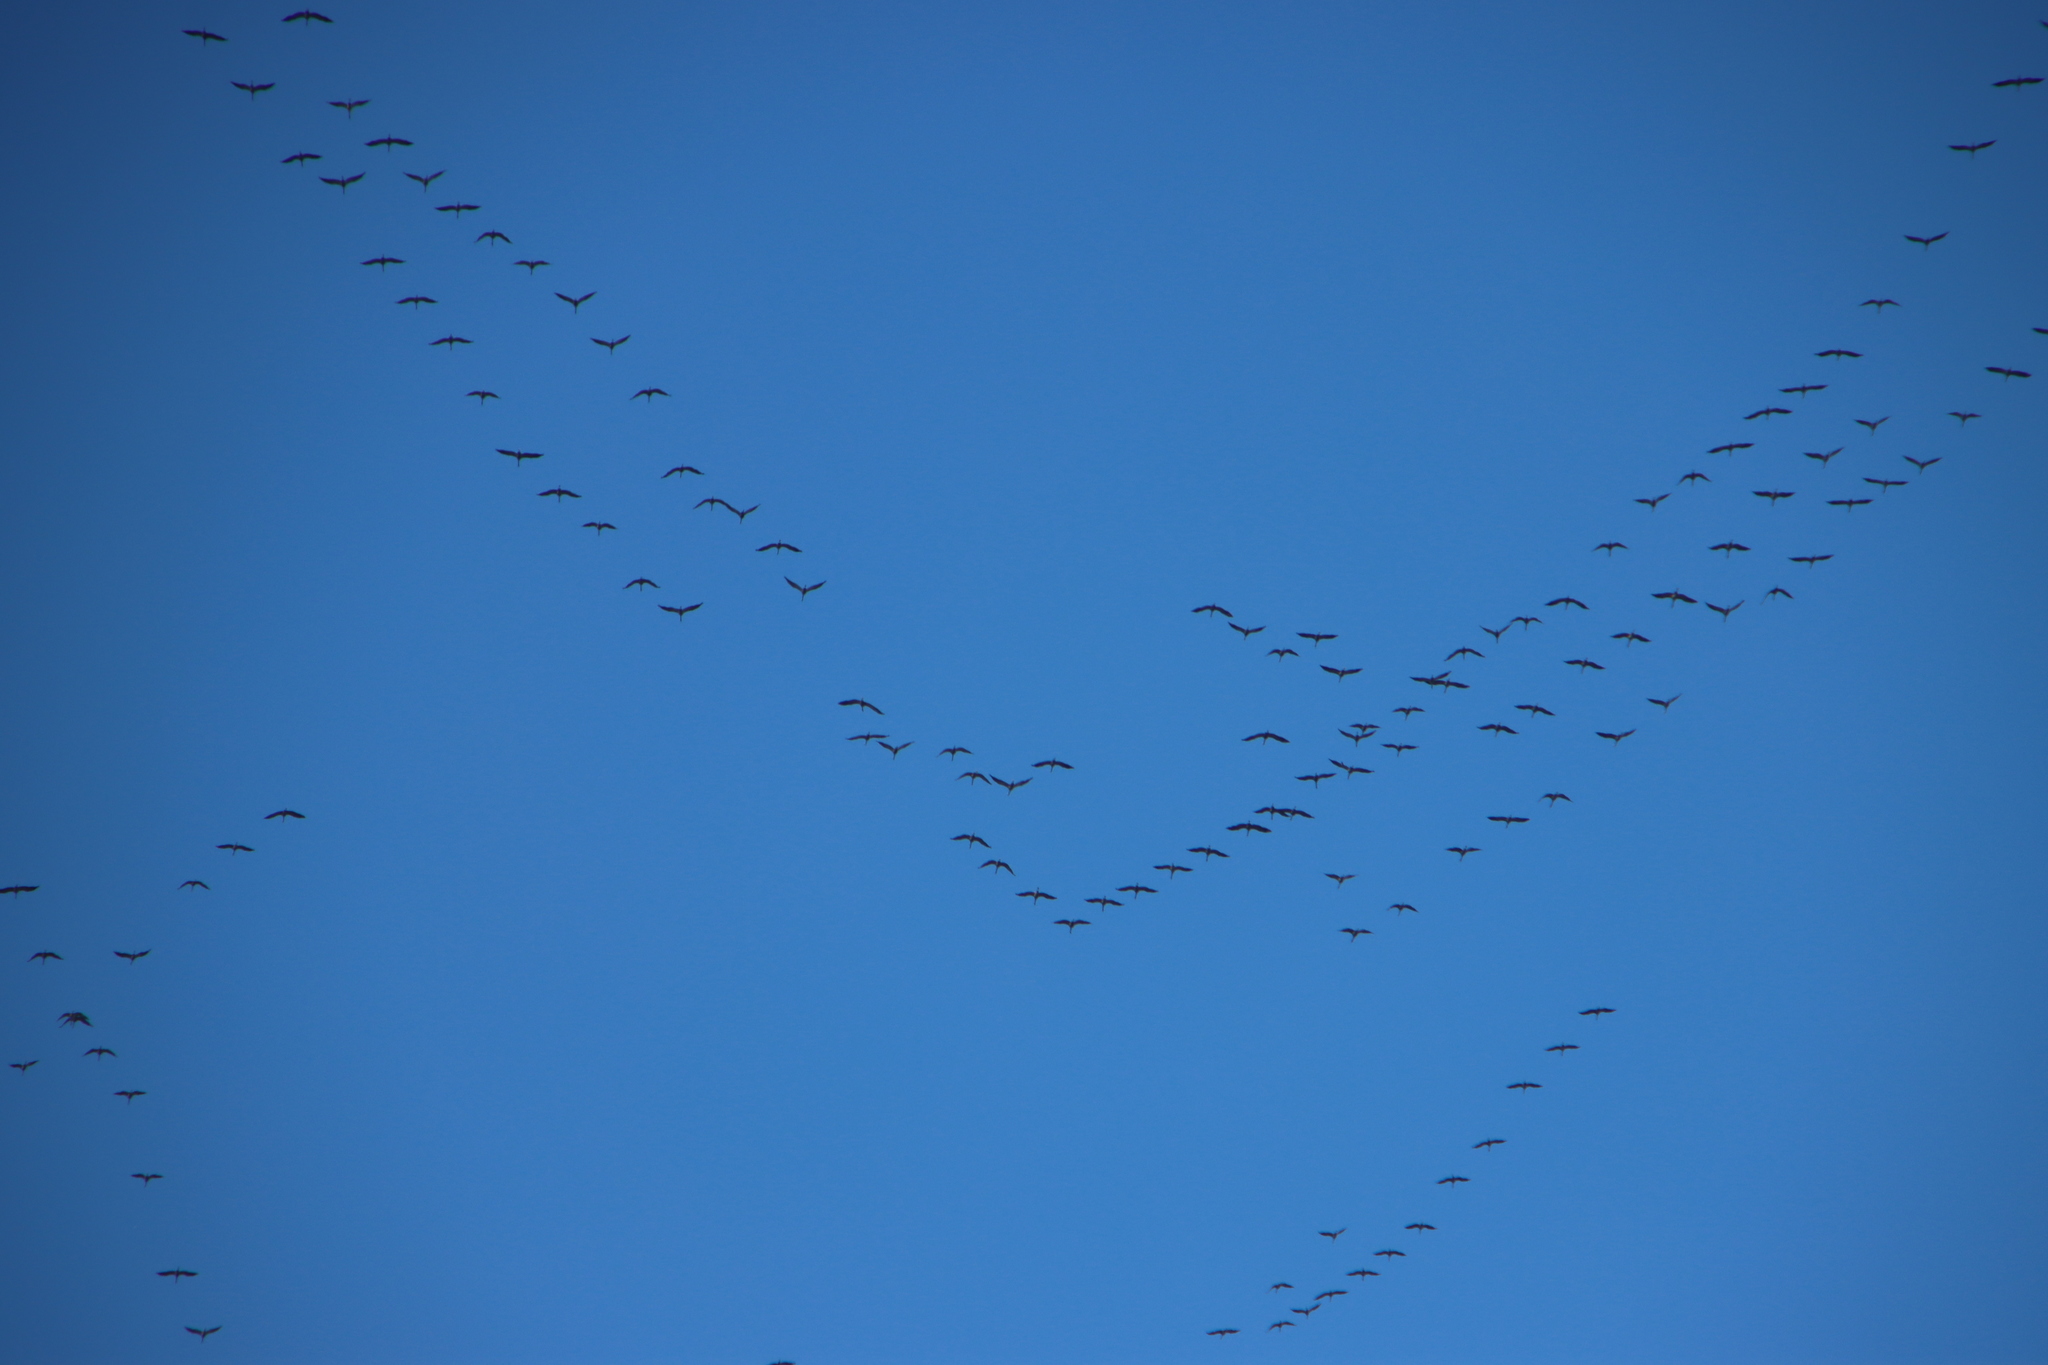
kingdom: Animalia
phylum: Chordata
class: Aves
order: Gruiformes
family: Gruidae
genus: Grus
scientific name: Grus grus
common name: Common crane
